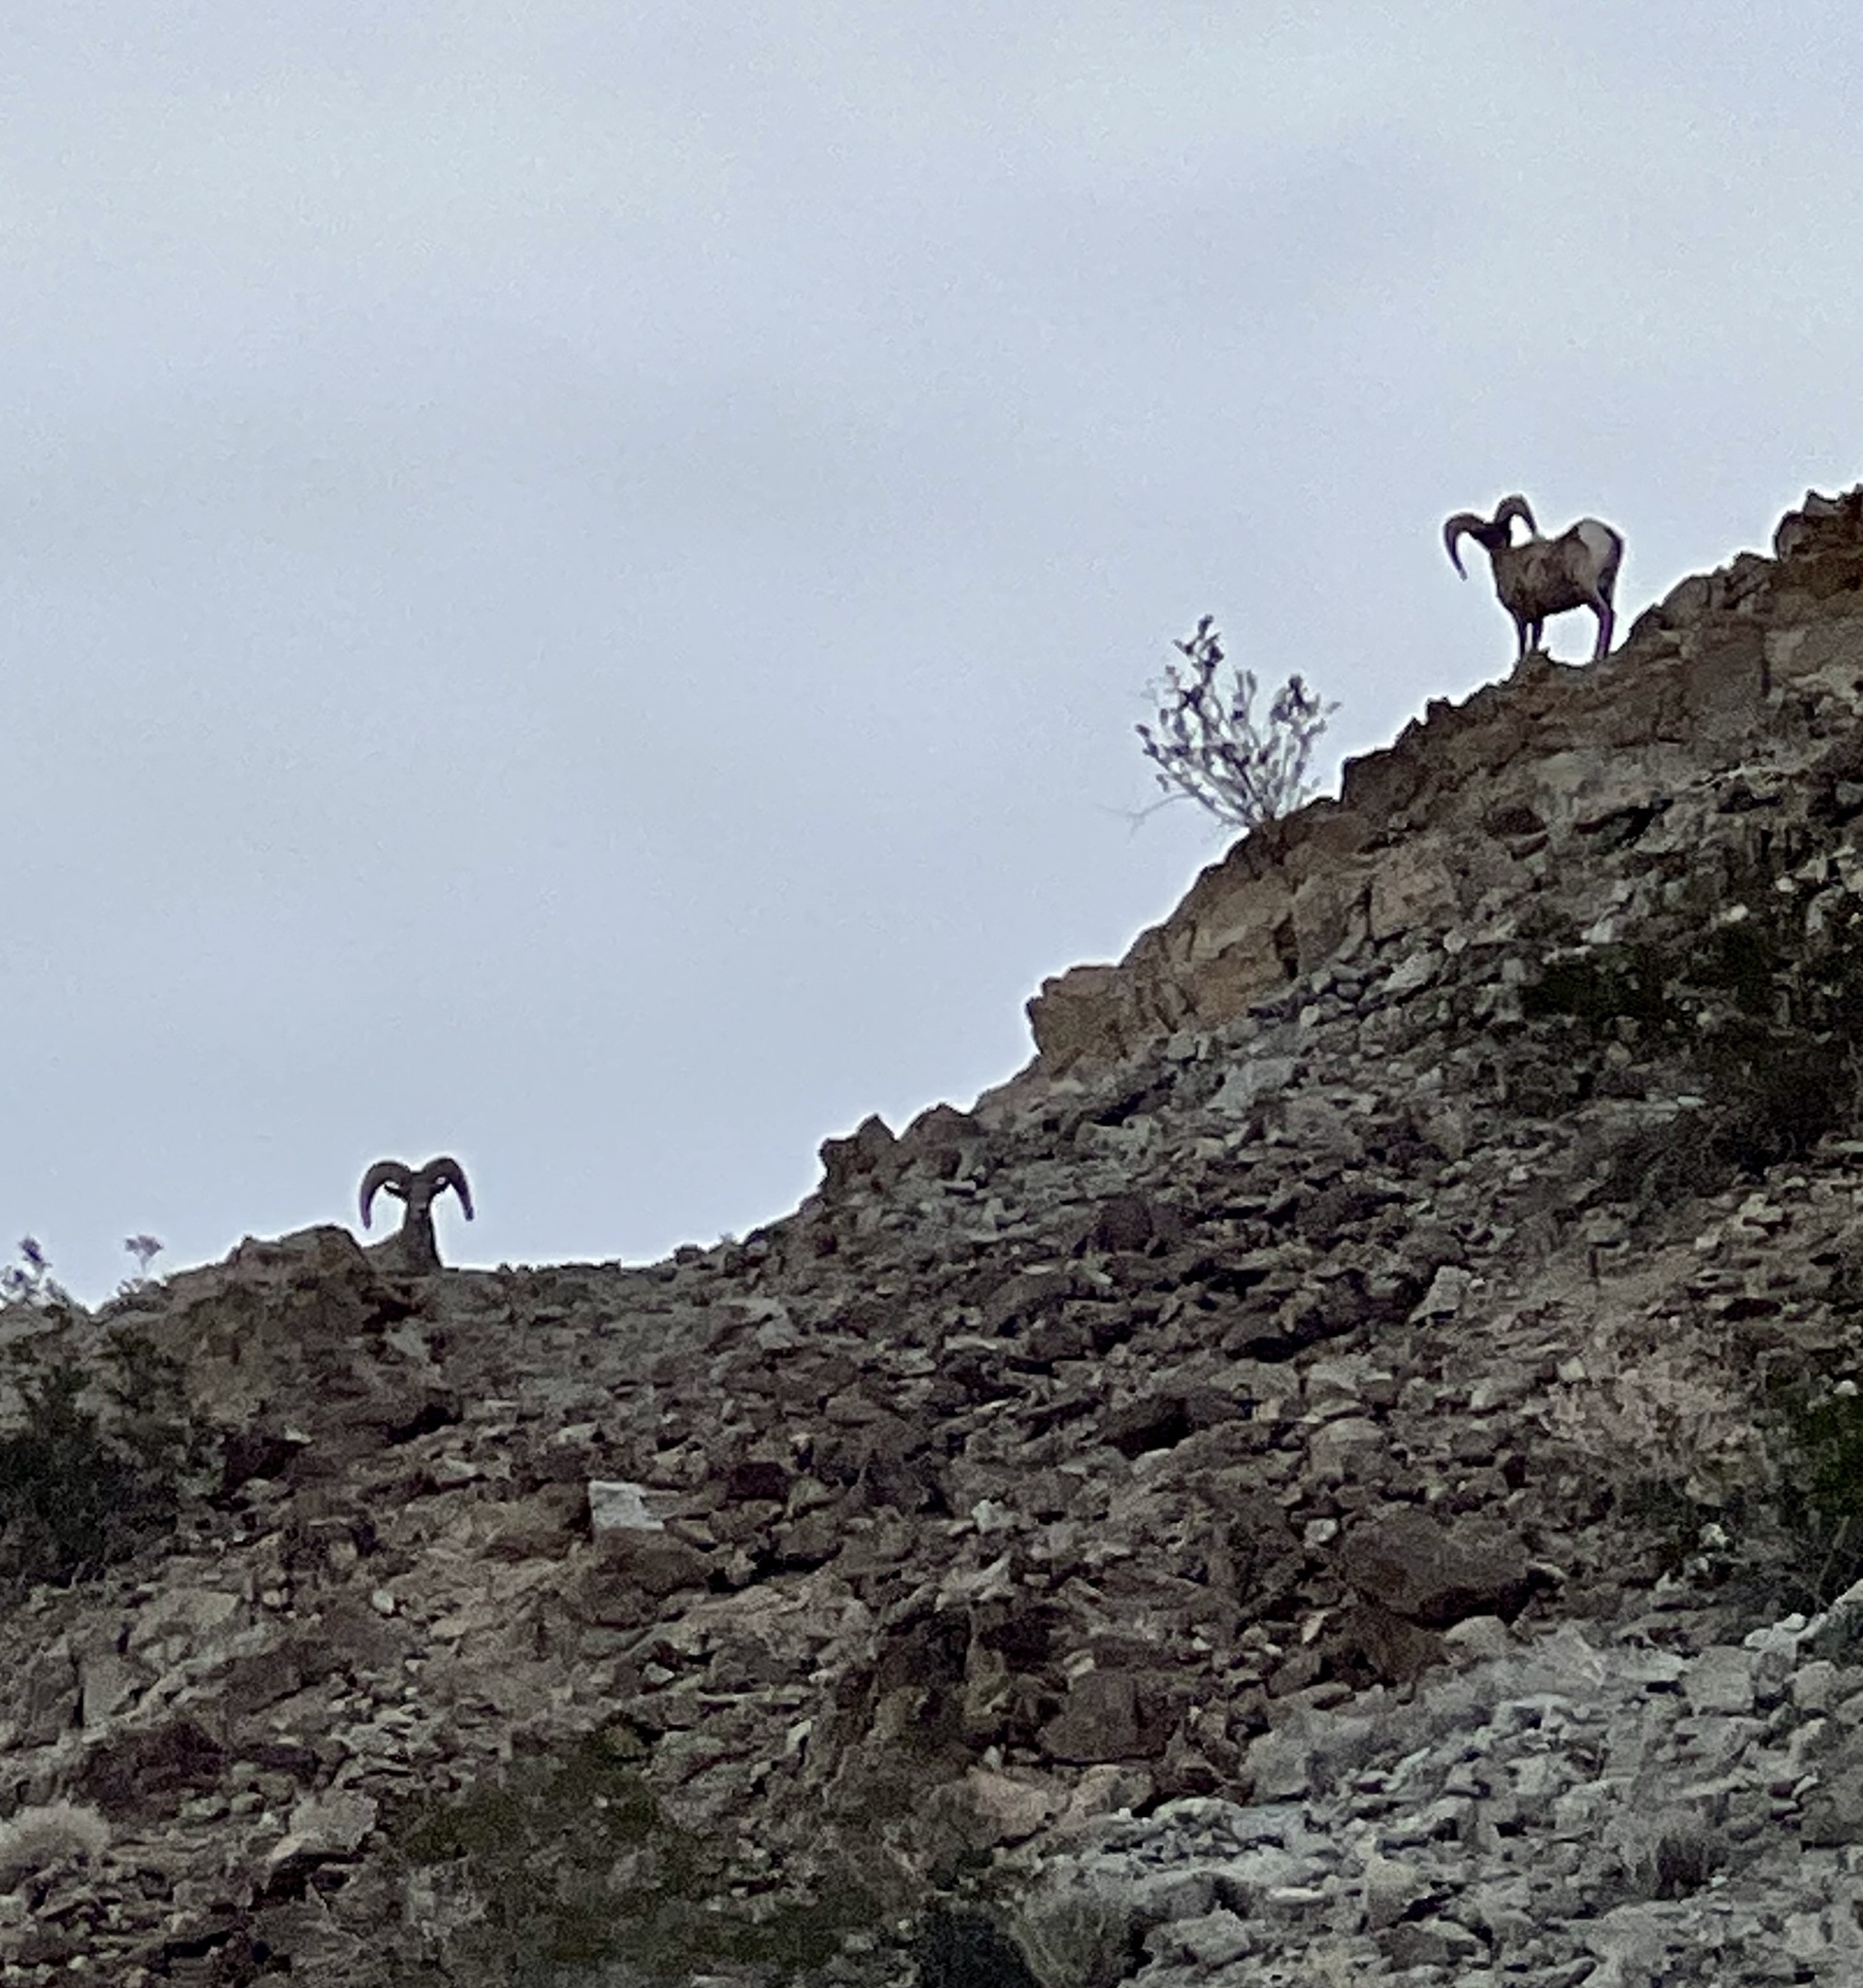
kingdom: Animalia
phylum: Chordata
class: Mammalia
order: Artiodactyla
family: Bovidae
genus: Ovis
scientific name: Ovis canadensis
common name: Bighorn sheep
